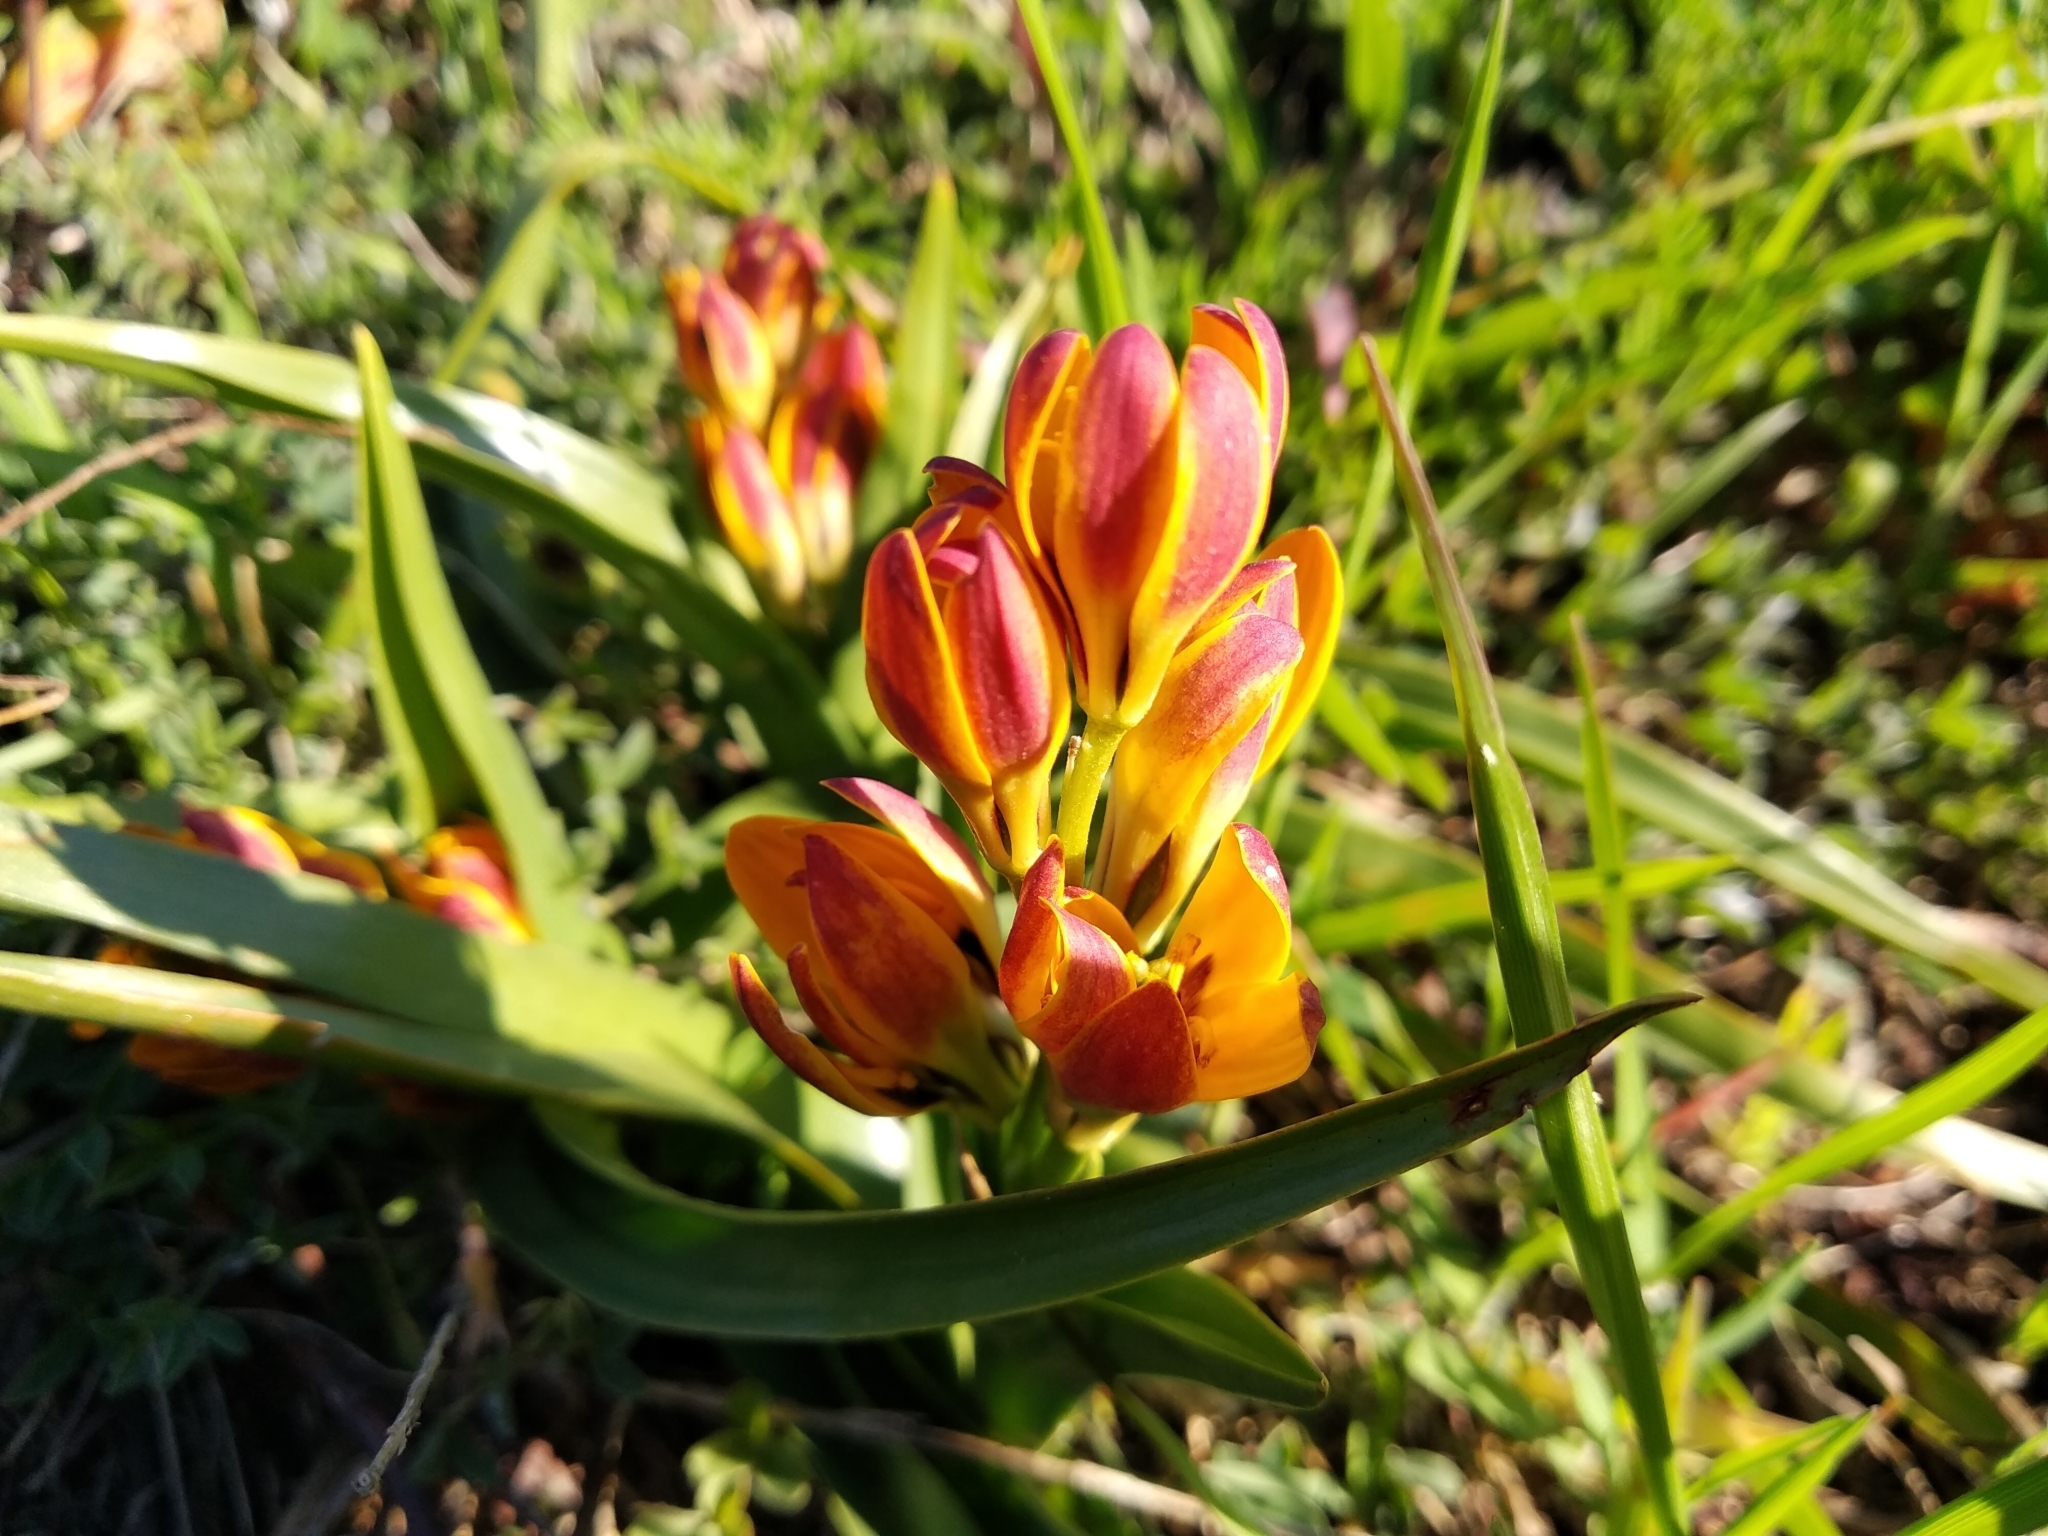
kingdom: Plantae
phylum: Tracheophyta
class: Liliopsida
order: Liliales
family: Colchicaceae
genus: Baeometra
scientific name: Baeometra uniflora
